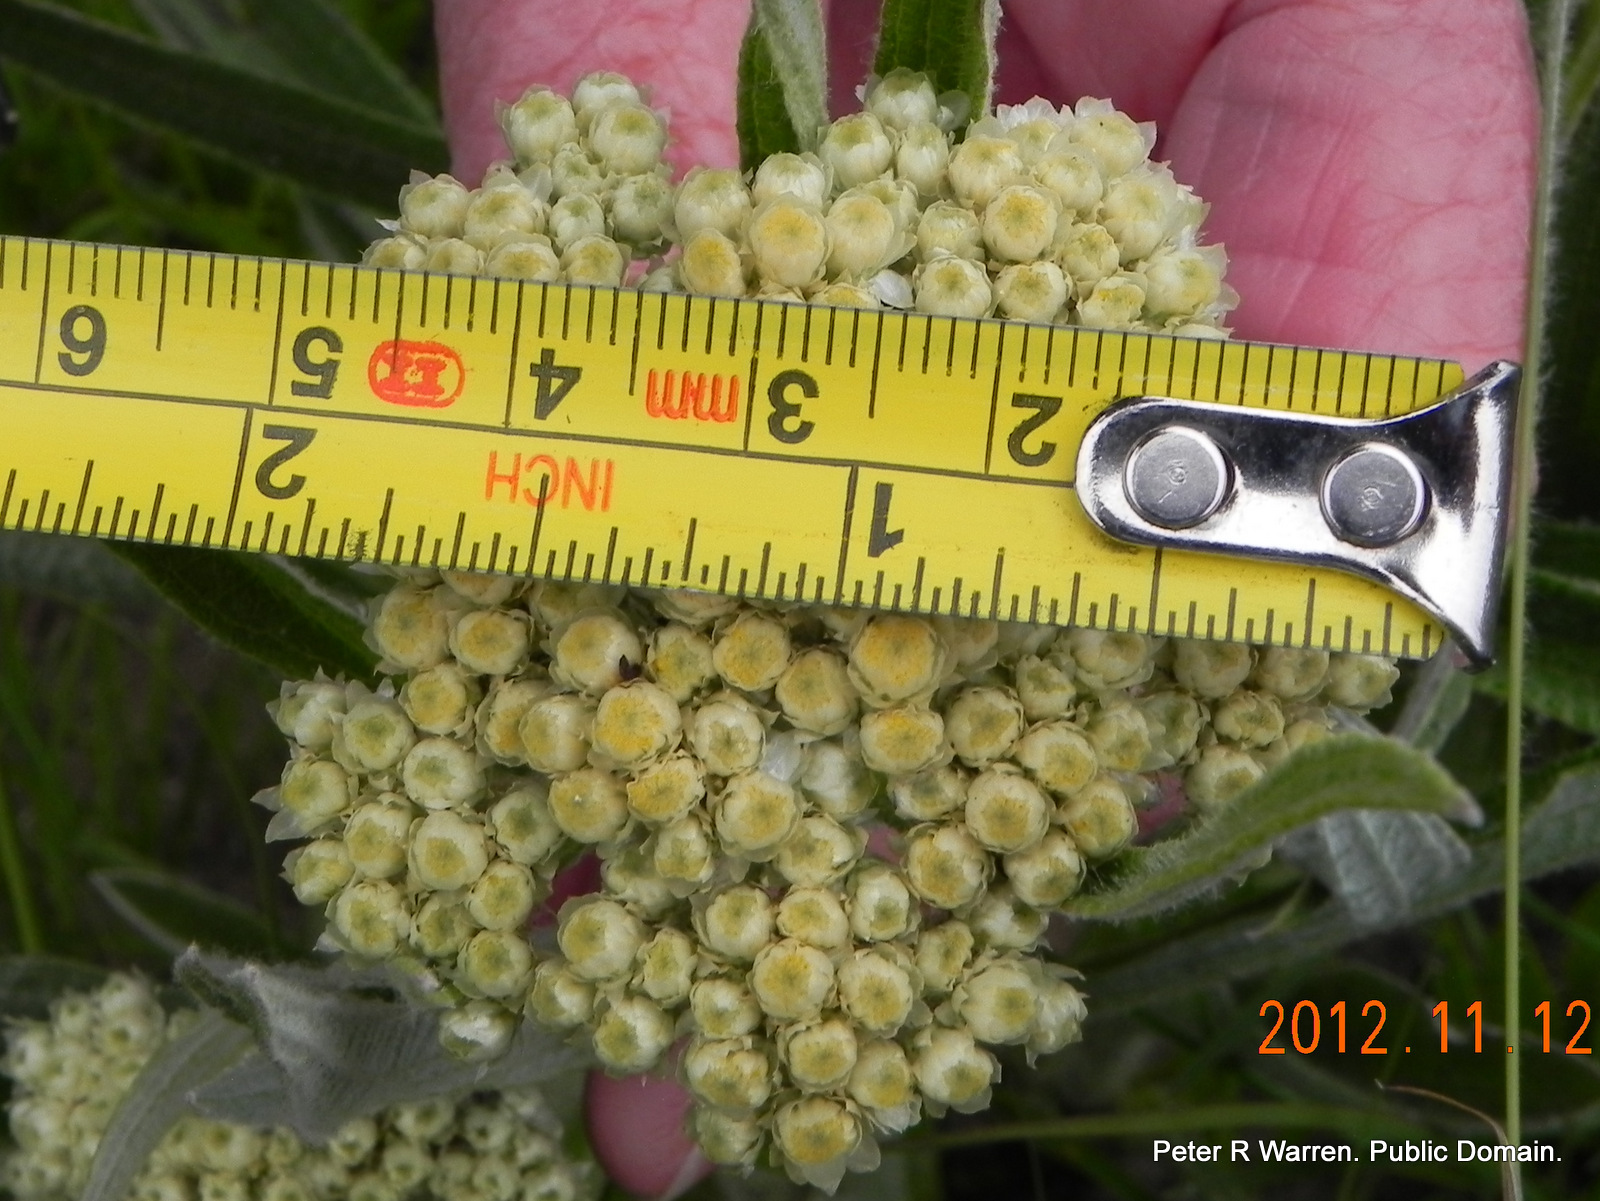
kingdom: Plantae
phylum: Tracheophyta
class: Magnoliopsida
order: Asterales
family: Asteraceae
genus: Helichrysum
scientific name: Helichrysum pallidum
